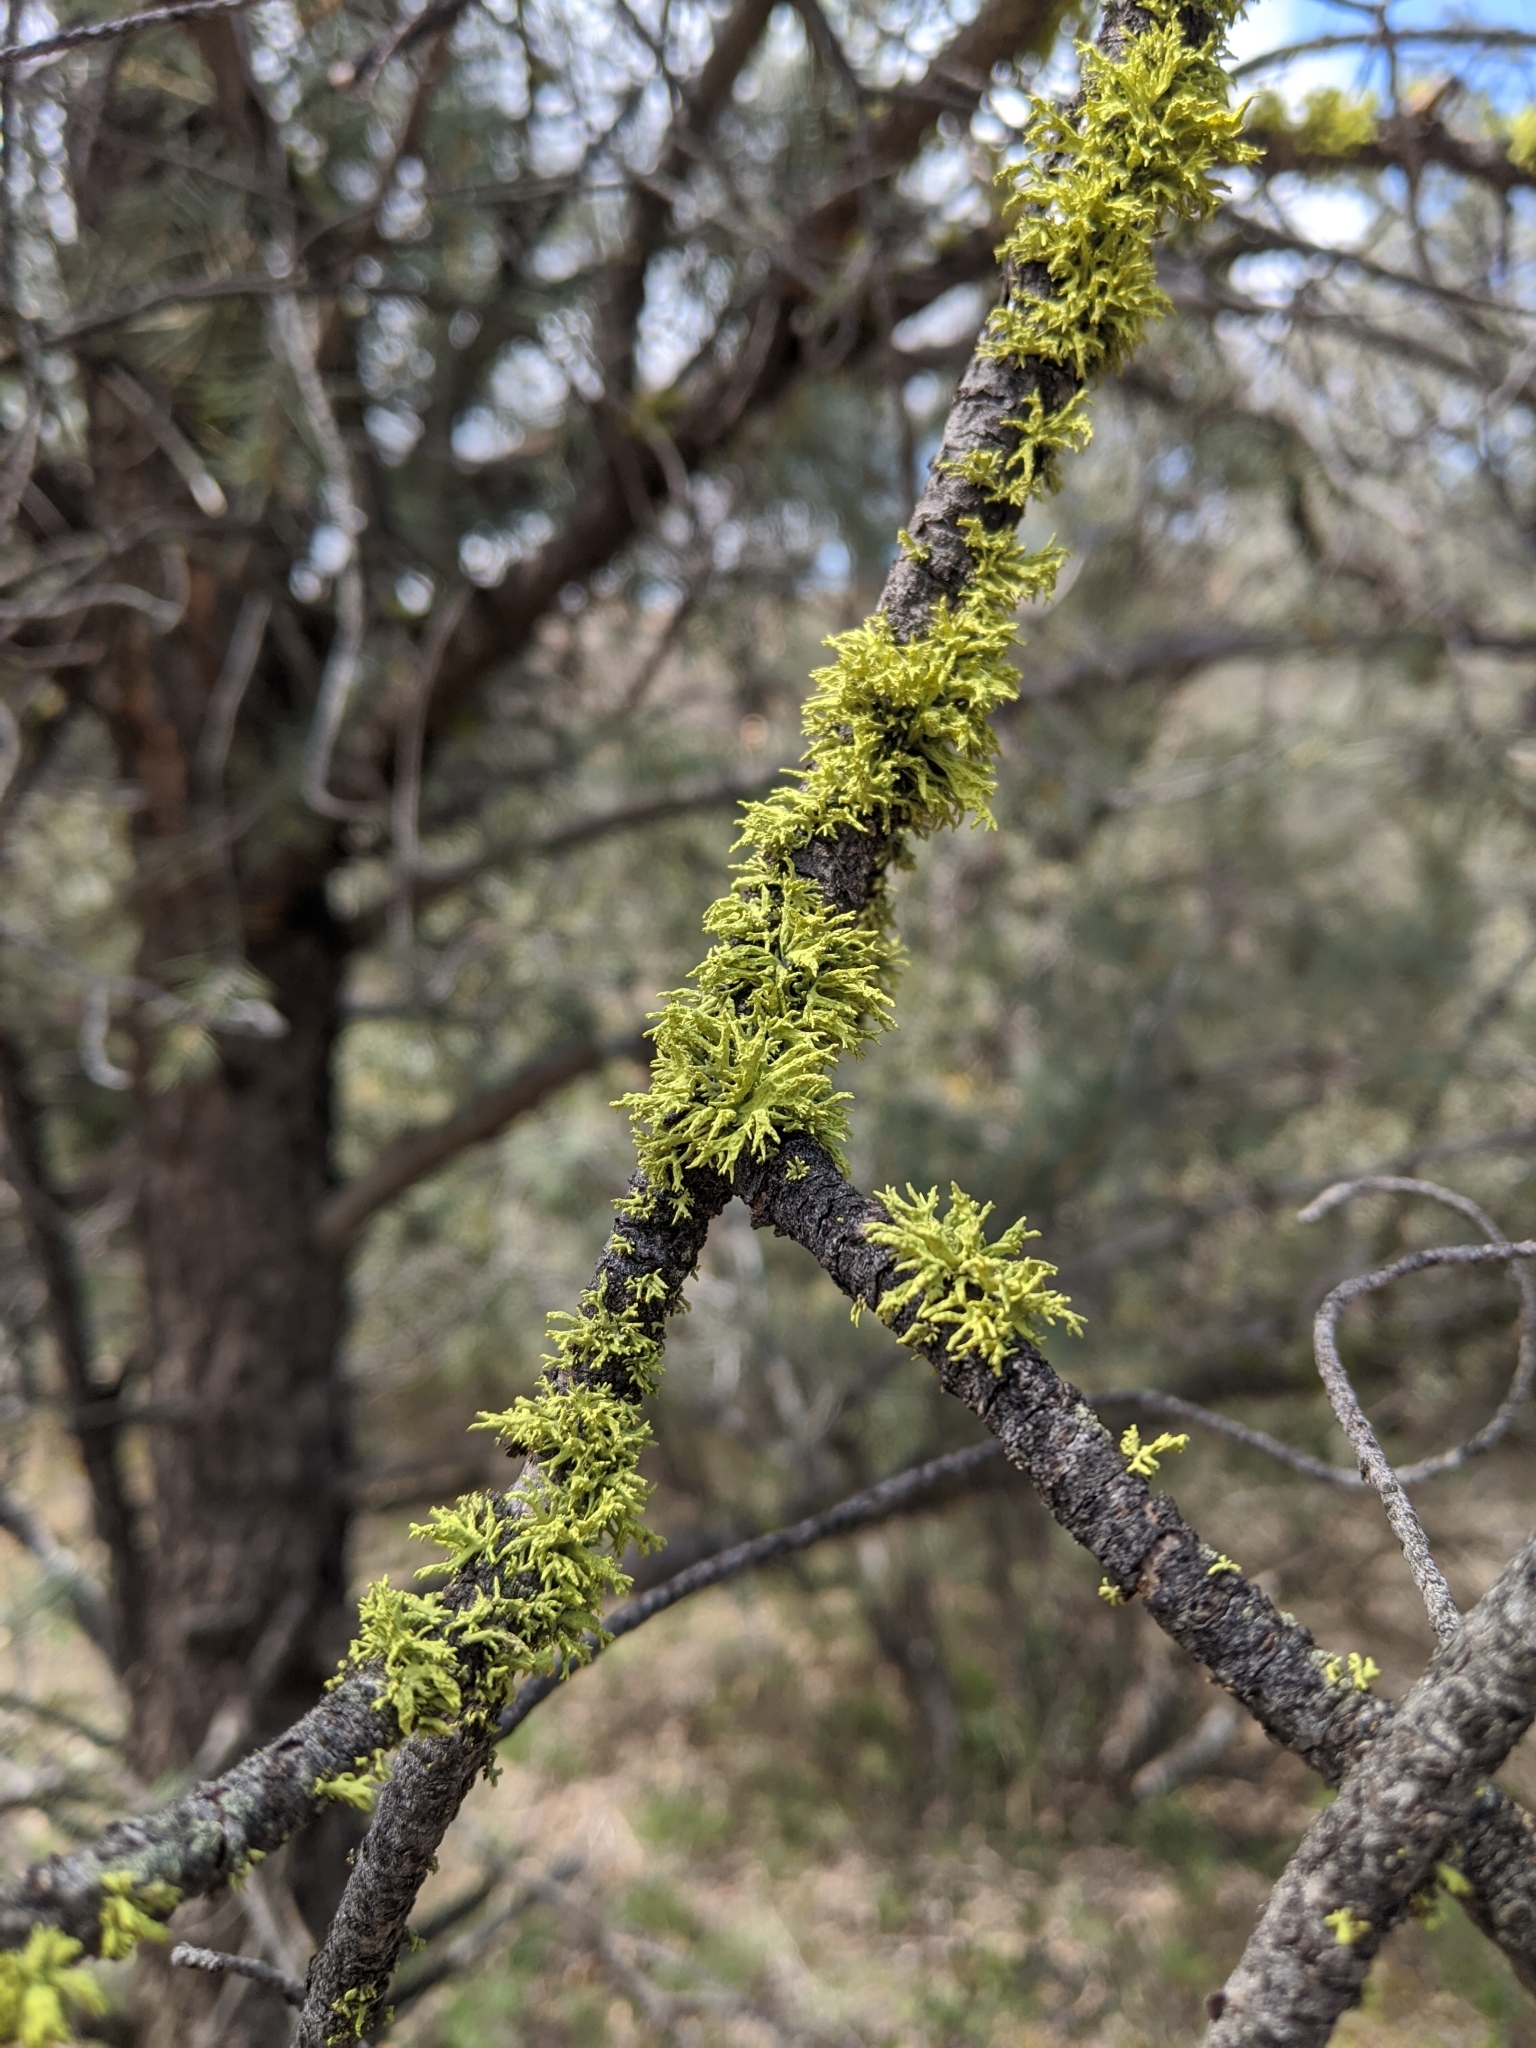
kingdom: Fungi
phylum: Ascomycota
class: Lecanoromycetes
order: Lecanorales
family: Parmeliaceae
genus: Letharia
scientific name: Letharia columbiana
